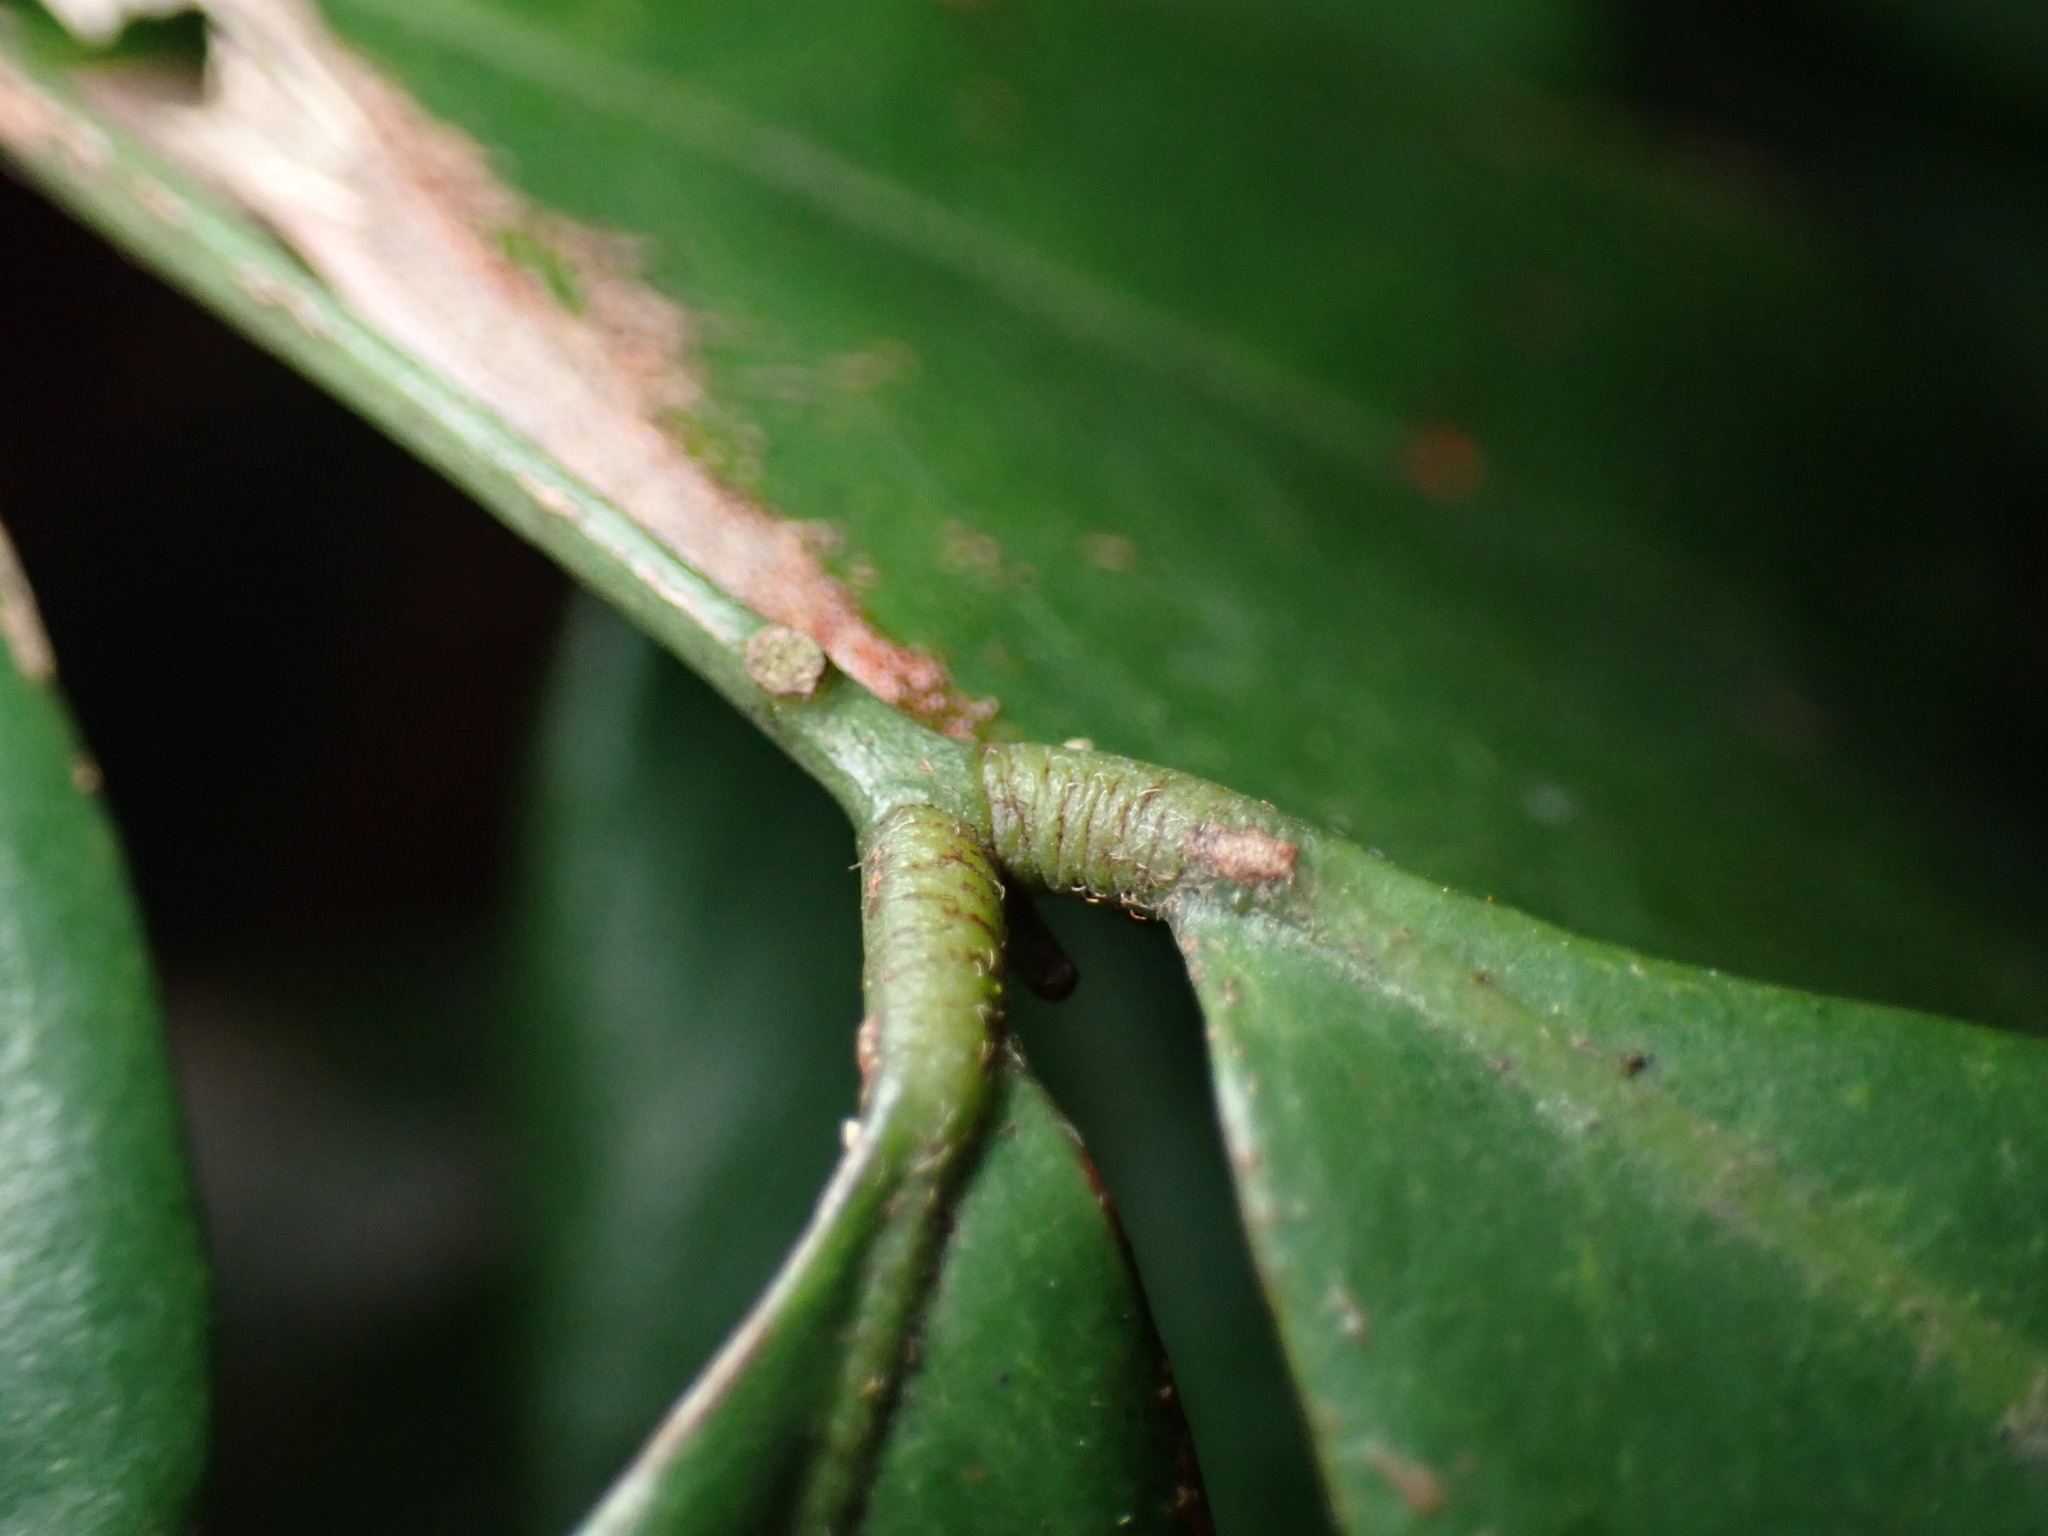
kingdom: Plantae
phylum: Tracheophyta
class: Magnoliopsida
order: Fabales
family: Fabaceae
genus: Archidendron
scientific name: Archidendron lucidum
